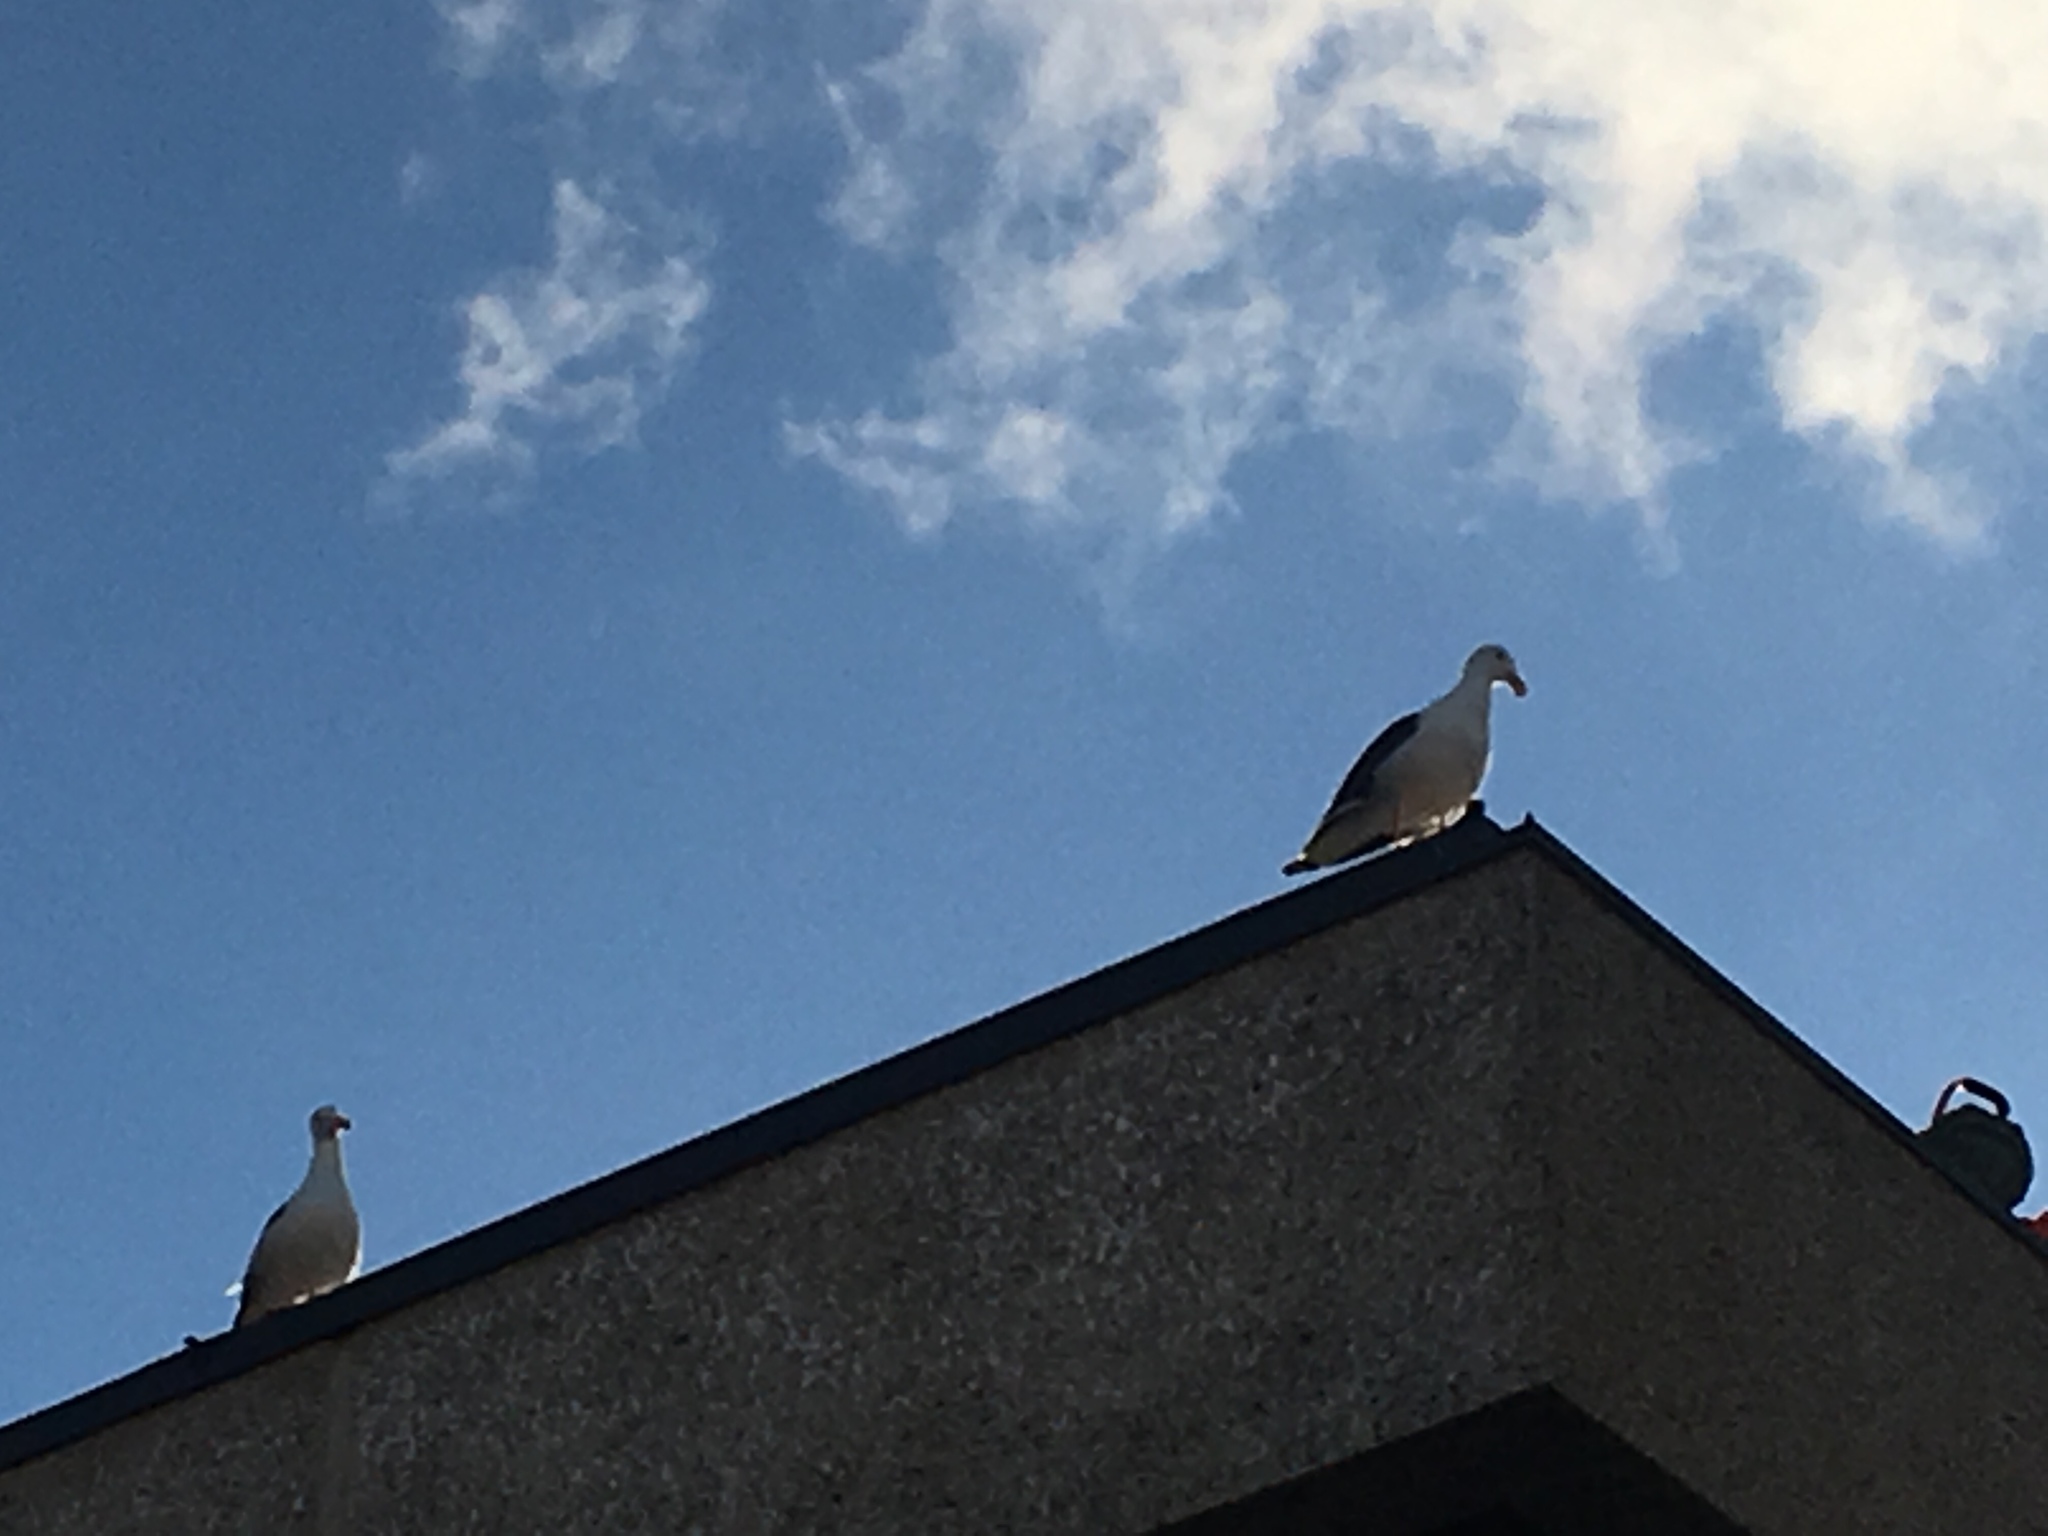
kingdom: Animalia
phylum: Chordata
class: Aves
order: Charadriiformes
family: Laridae
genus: Larus
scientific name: Larus occidentalis
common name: Western gull
